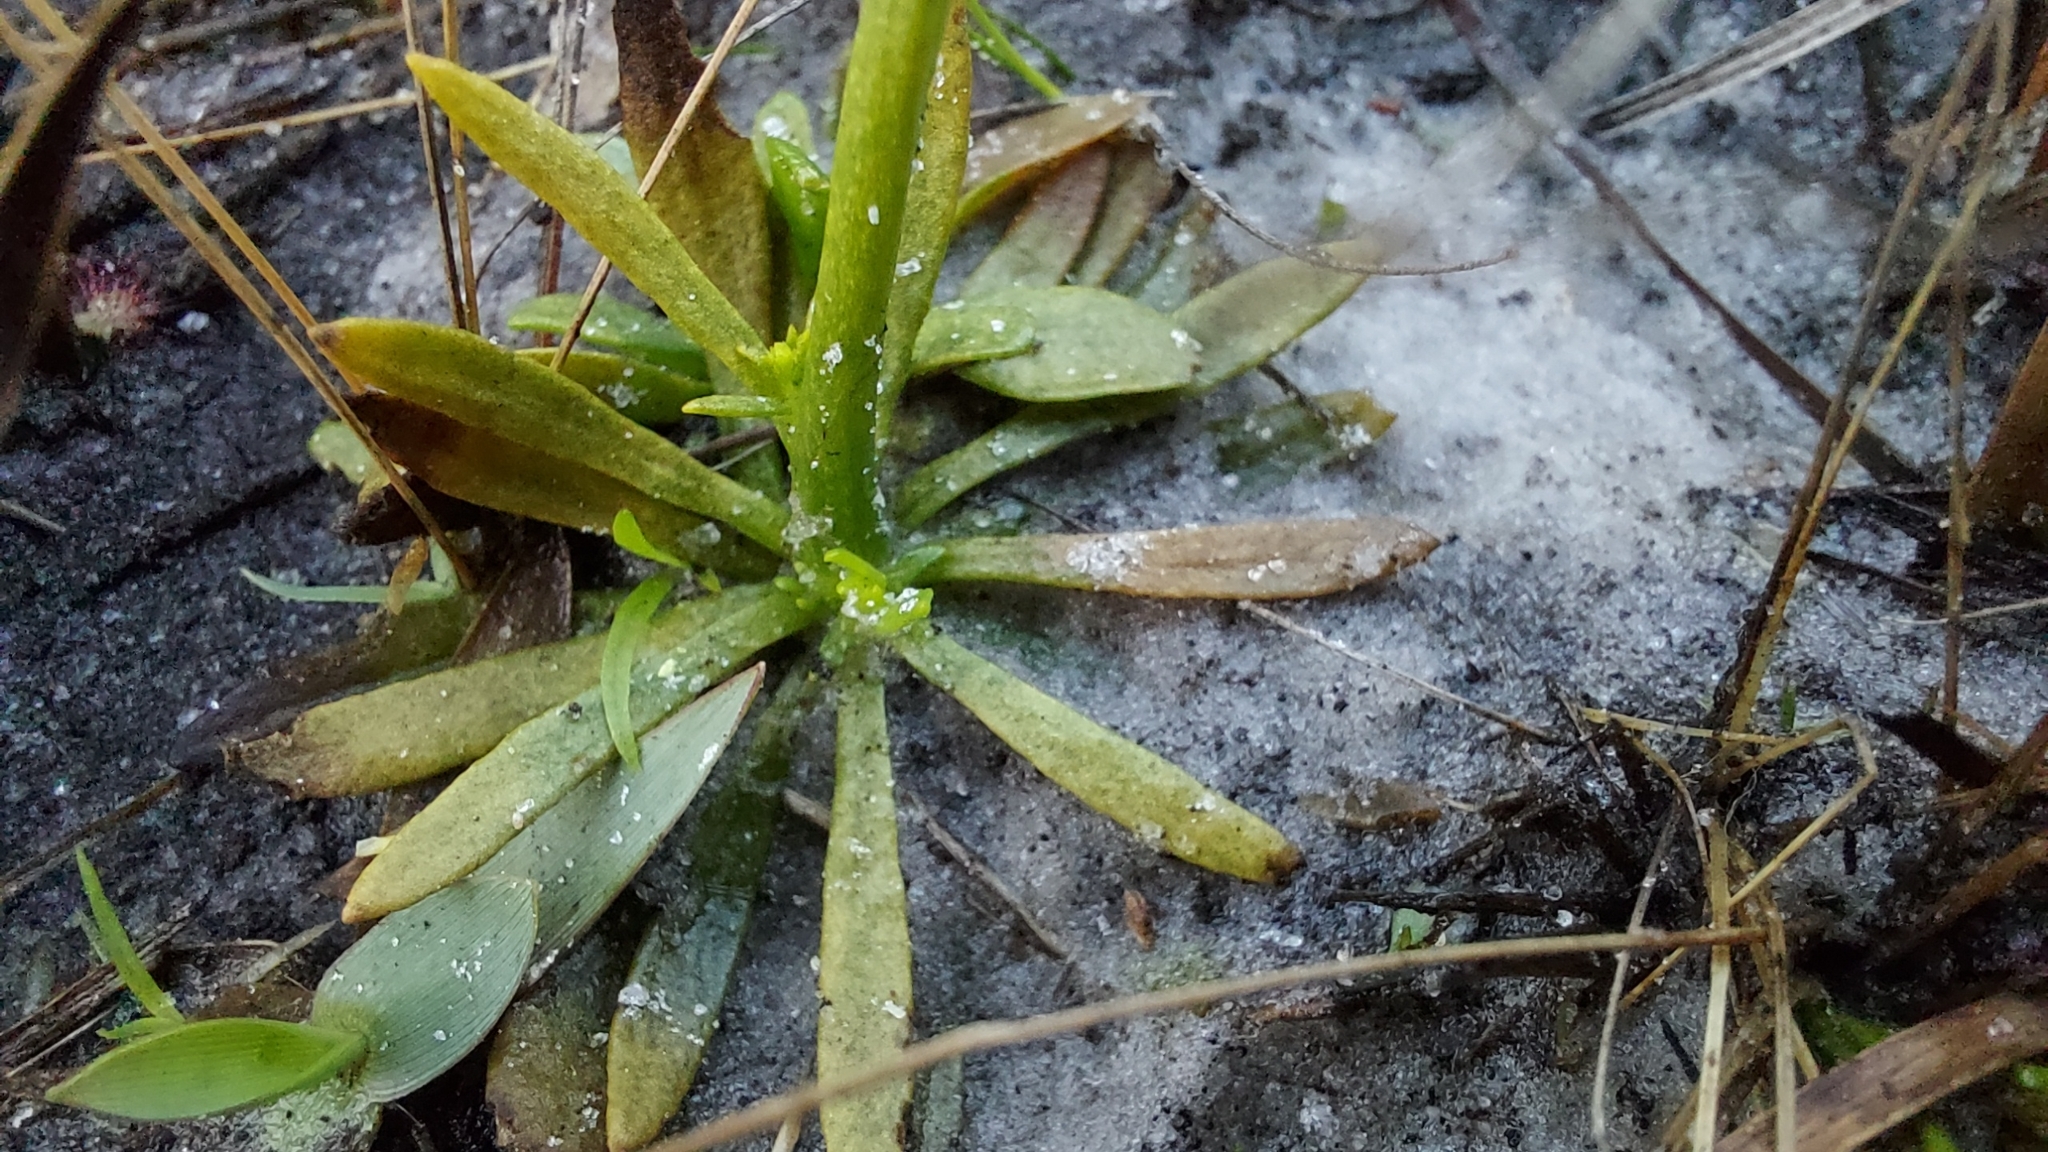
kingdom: Plantae
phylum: Tracheophyta
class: Magnoliopsida
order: Fabales
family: Polygalaceae
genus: Polygala
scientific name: Polygala cymosa
